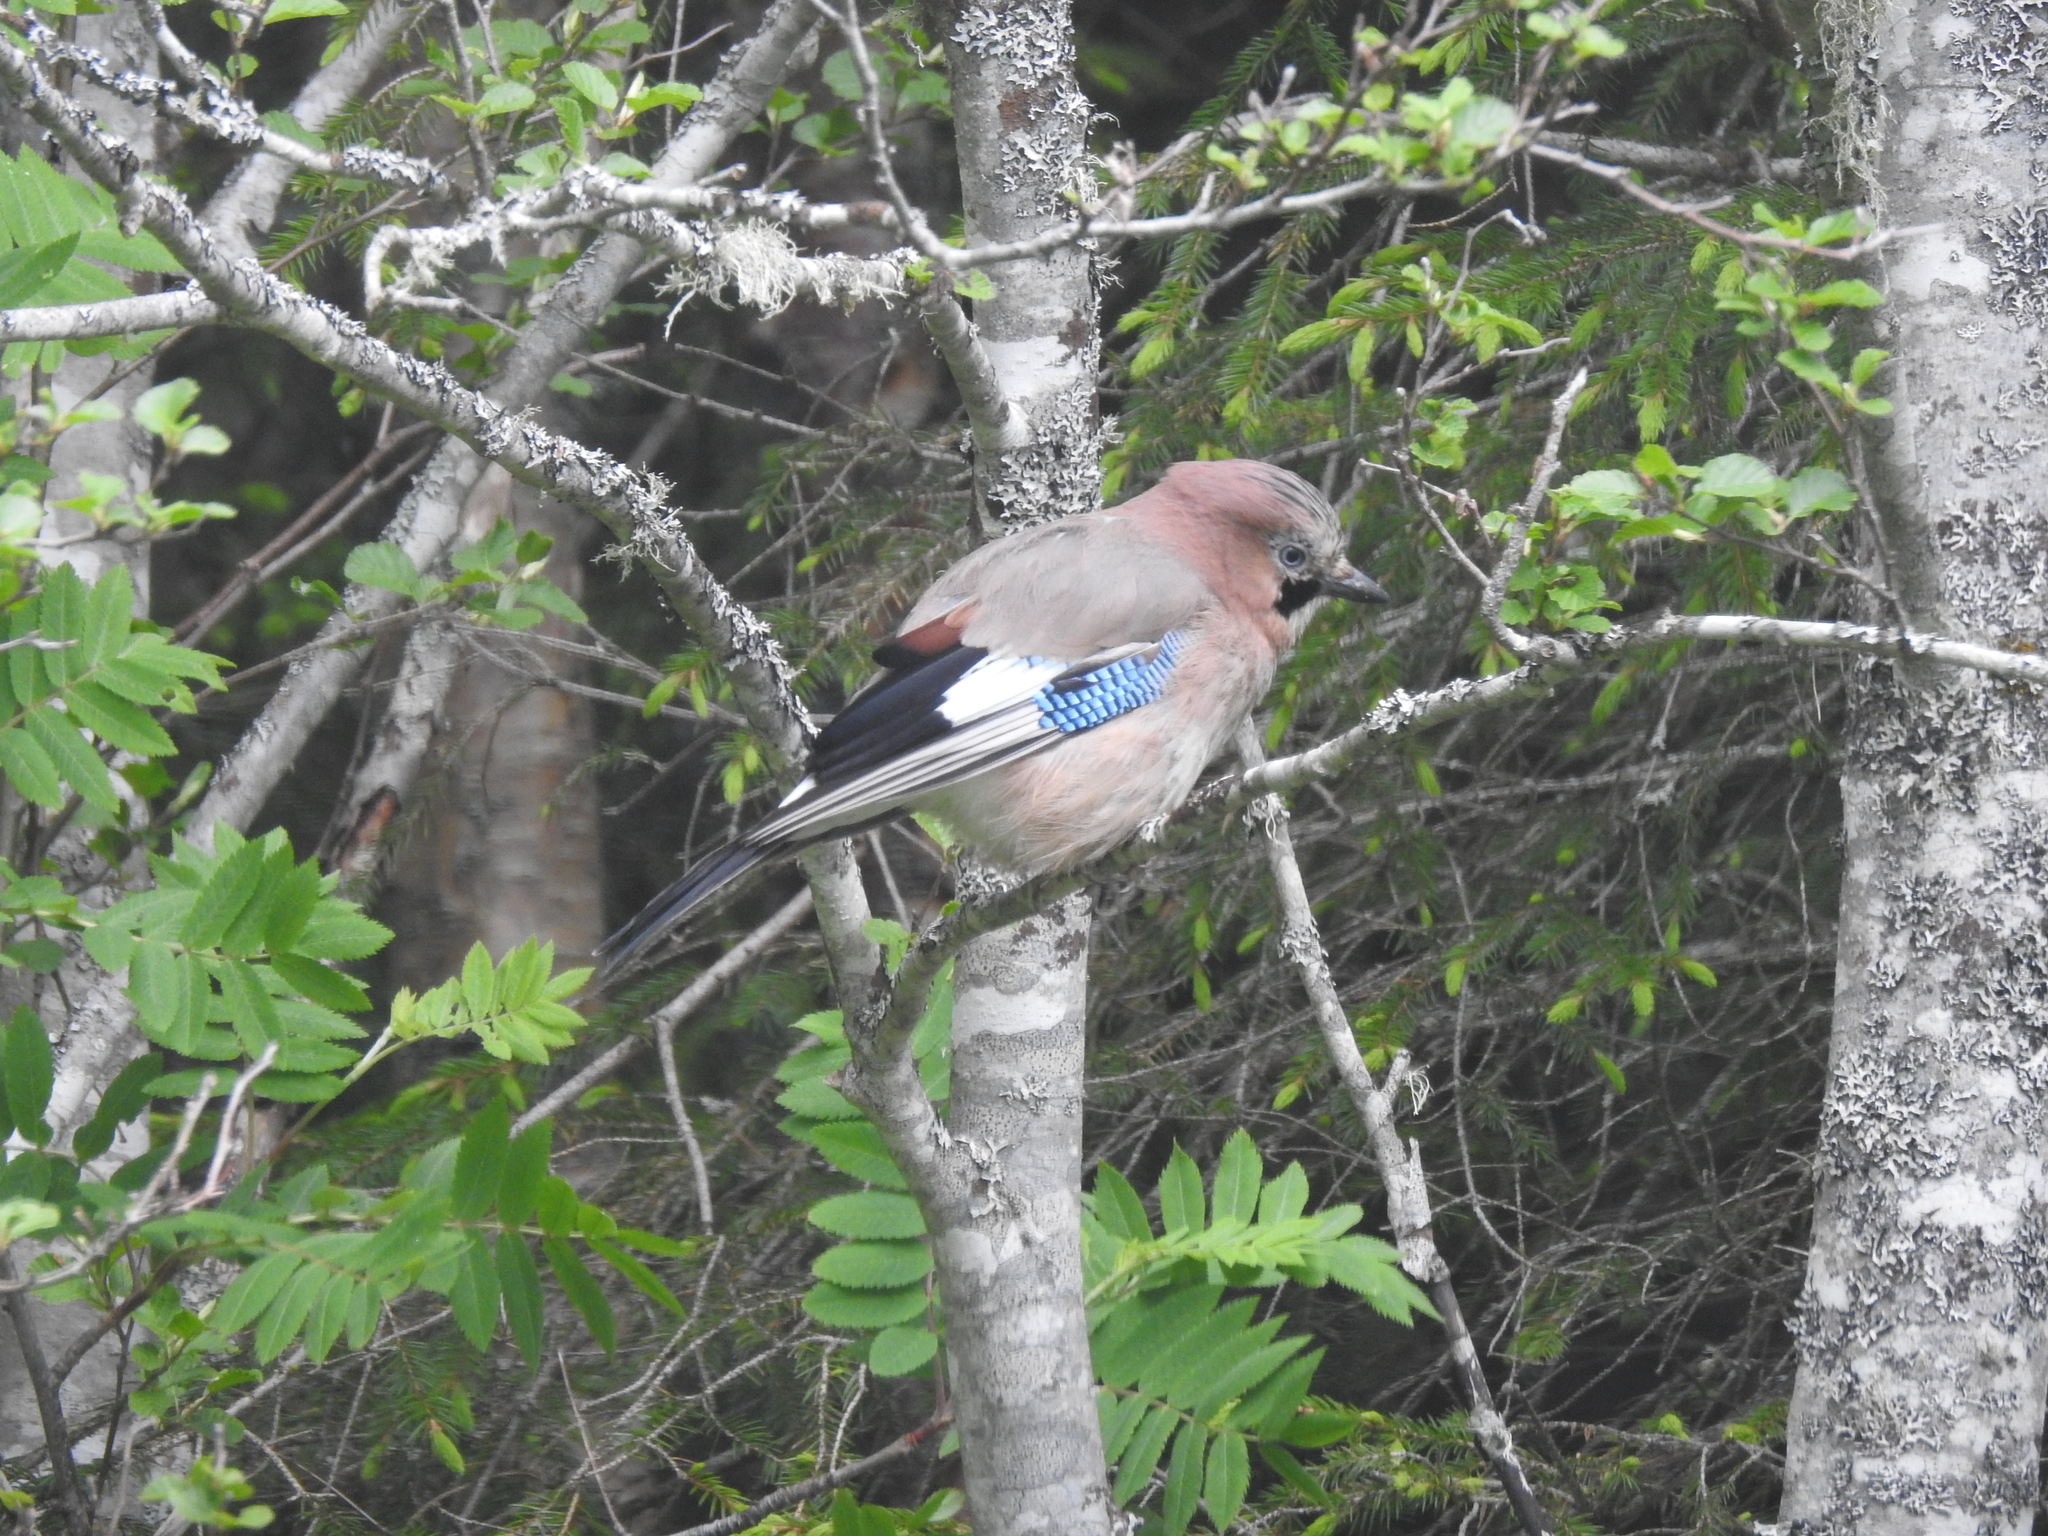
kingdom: Animalia
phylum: Chordata
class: Aves
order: Passeriformes
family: Corvidae
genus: Garrulus
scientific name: Garrulus glandarius
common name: Eurasian jay
